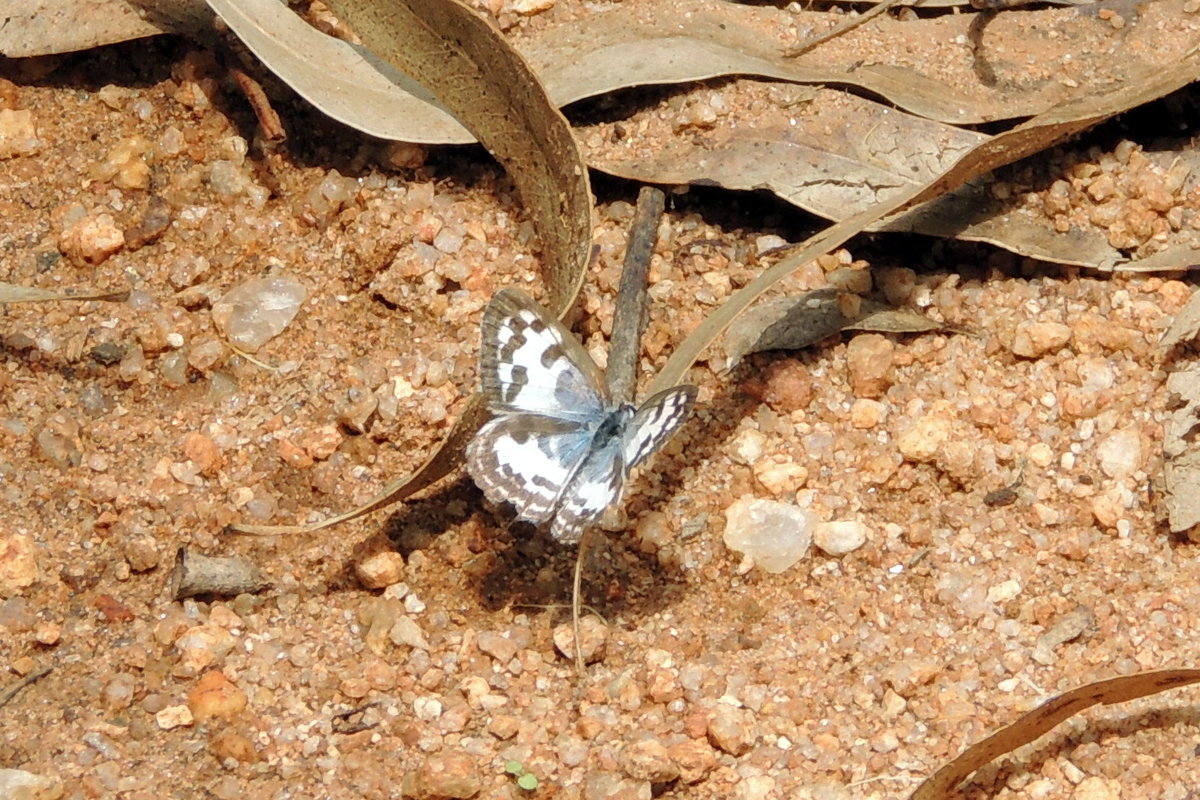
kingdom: Animalia
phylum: Arthropoda
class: Insecta
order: Lepidoptera
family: Lycaenidae
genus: Castalius
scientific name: Castalius rosimon
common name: Common pierrot
